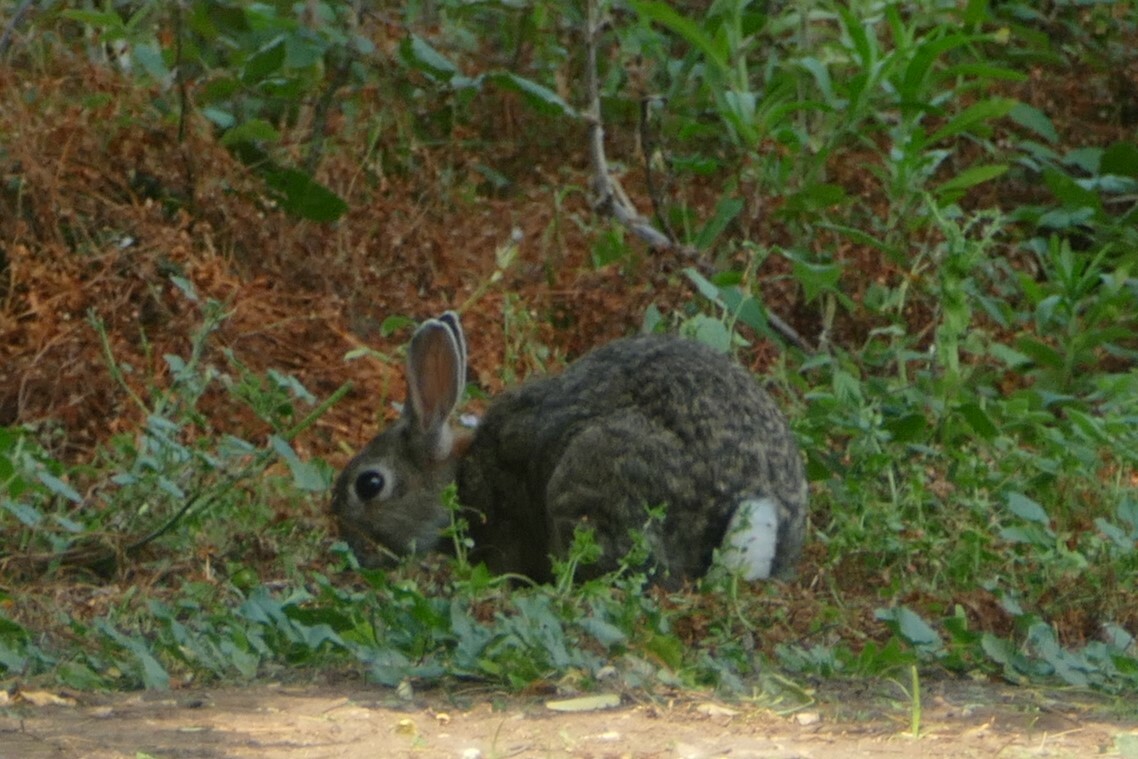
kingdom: Animalia
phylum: Chordata
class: Mammalia
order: Lagomorpha
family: Leporidae
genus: Oryctolagus
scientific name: Oryctolagus cuniculus
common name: European rabbit
